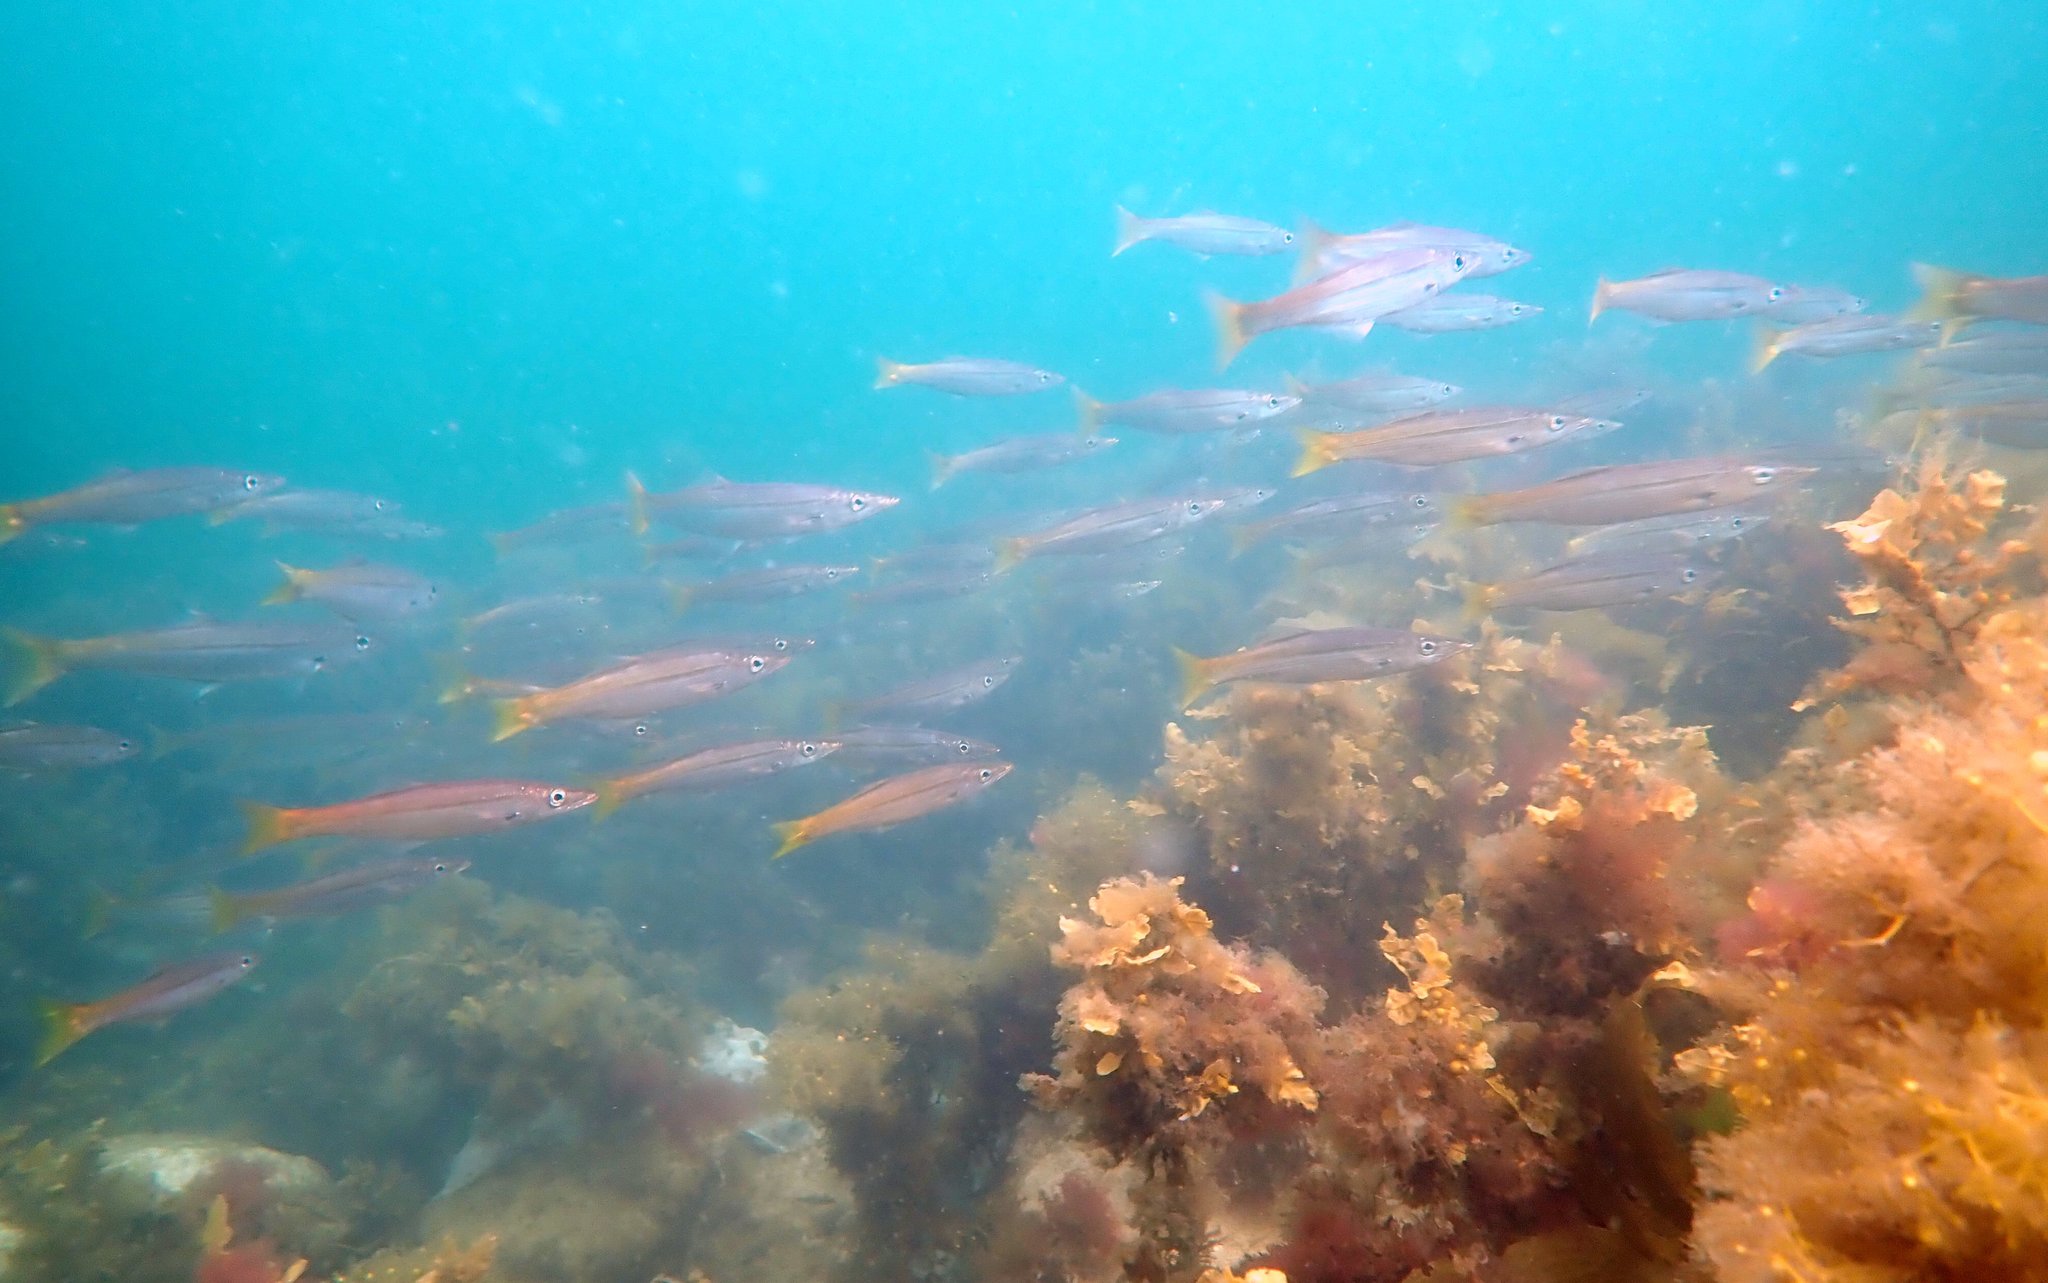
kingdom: Animalia
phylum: Chordata
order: Perciformes
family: Dinolestidae
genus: Dinolestes
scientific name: Dinolestes lewini
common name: Jack pike
